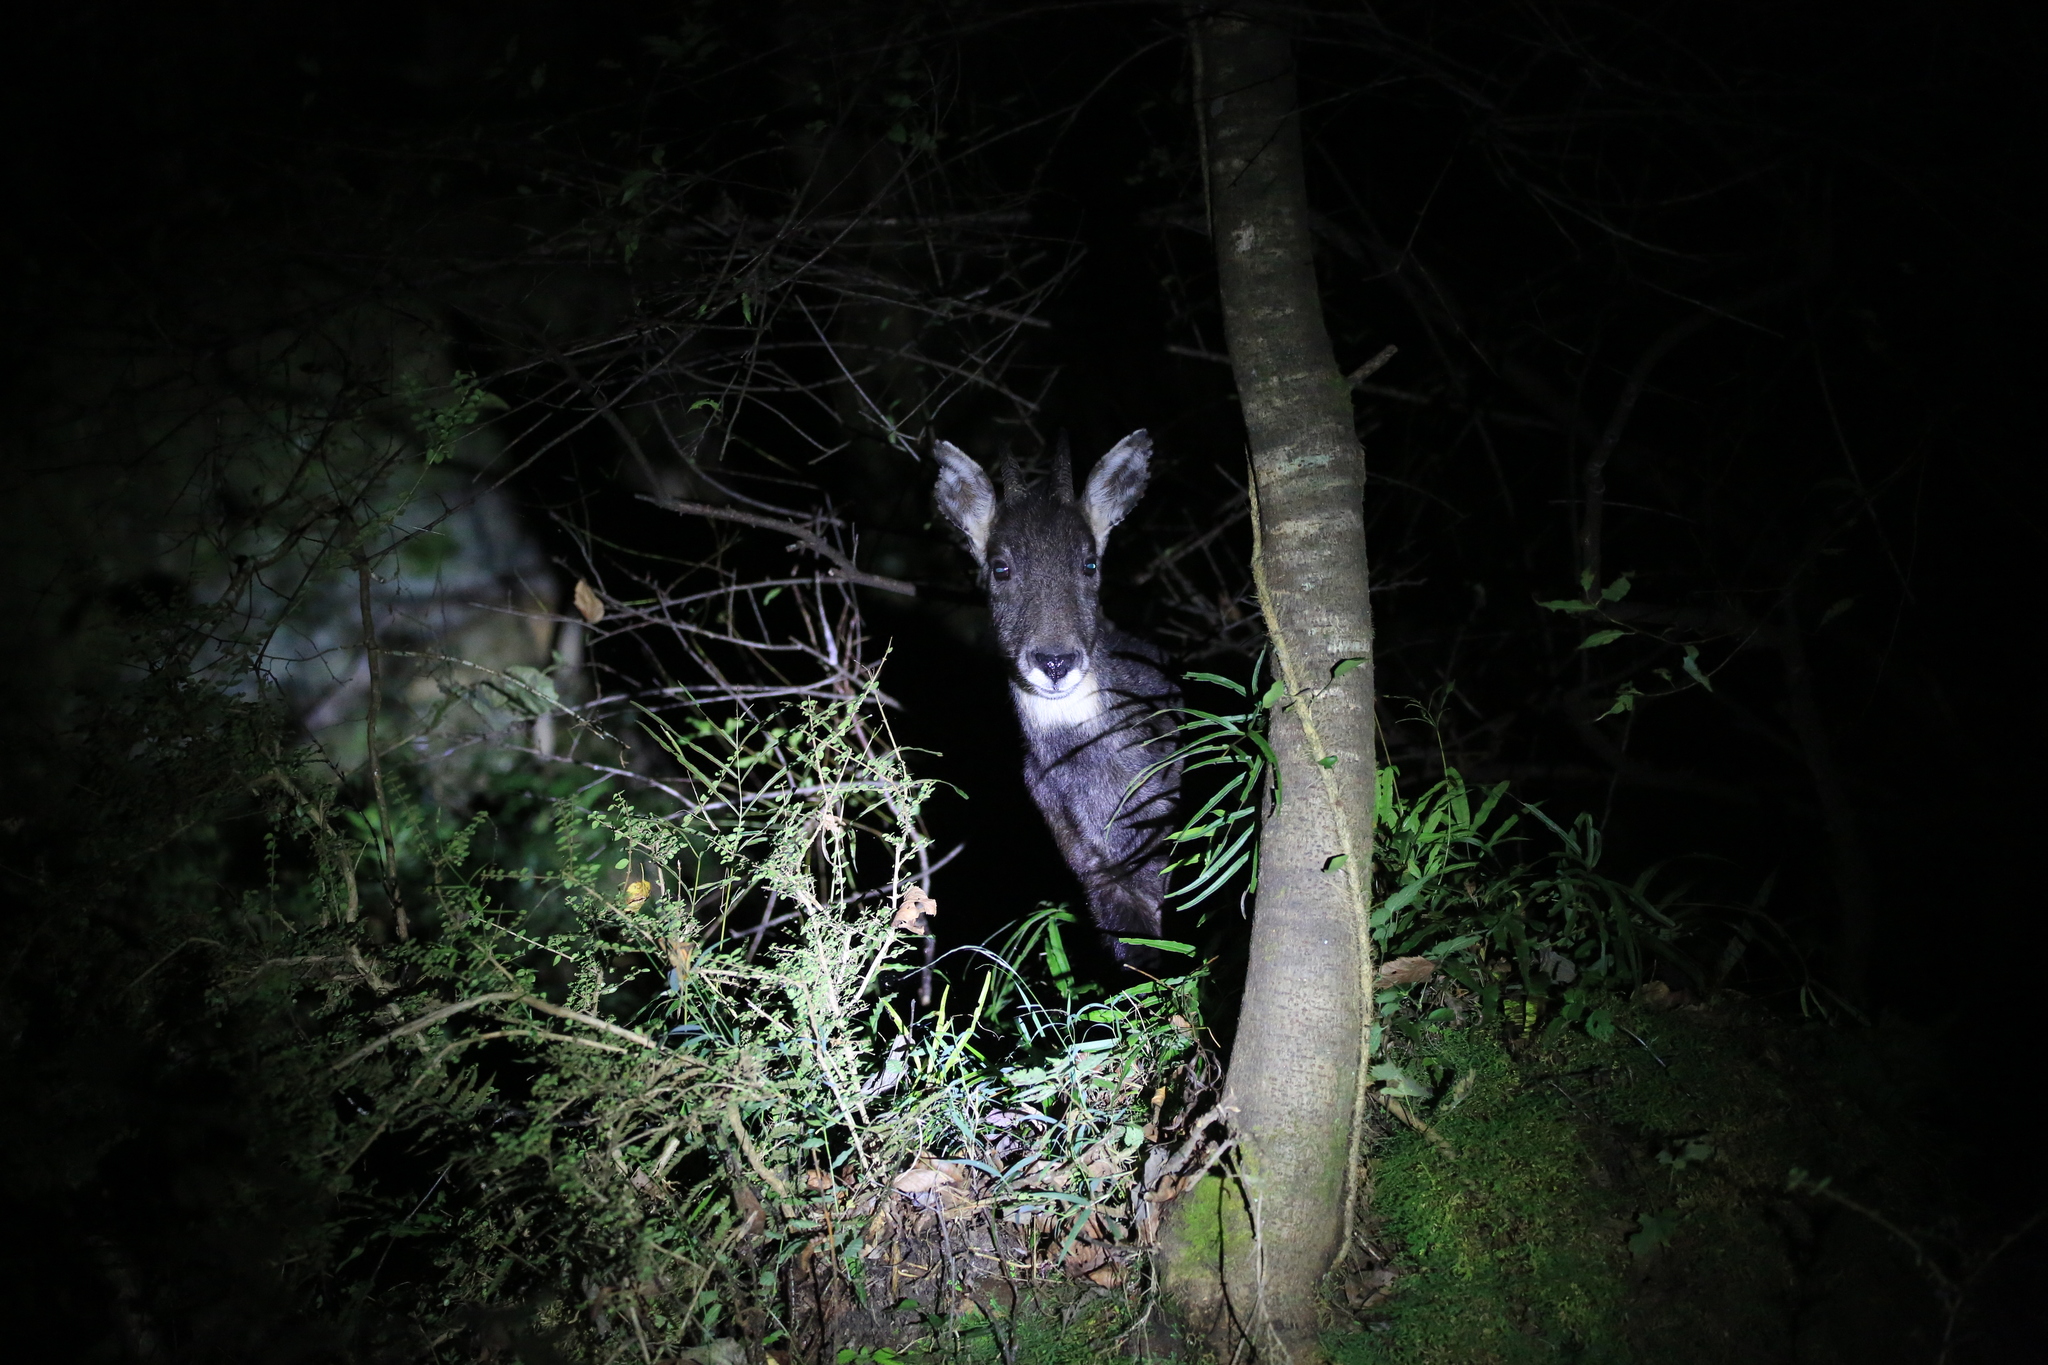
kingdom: Animalia
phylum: Chordata
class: Mammalia
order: Artiodactyla
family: Bovidae
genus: Naemorhedus
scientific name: Naemorhedus griseus
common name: Chinese goral
